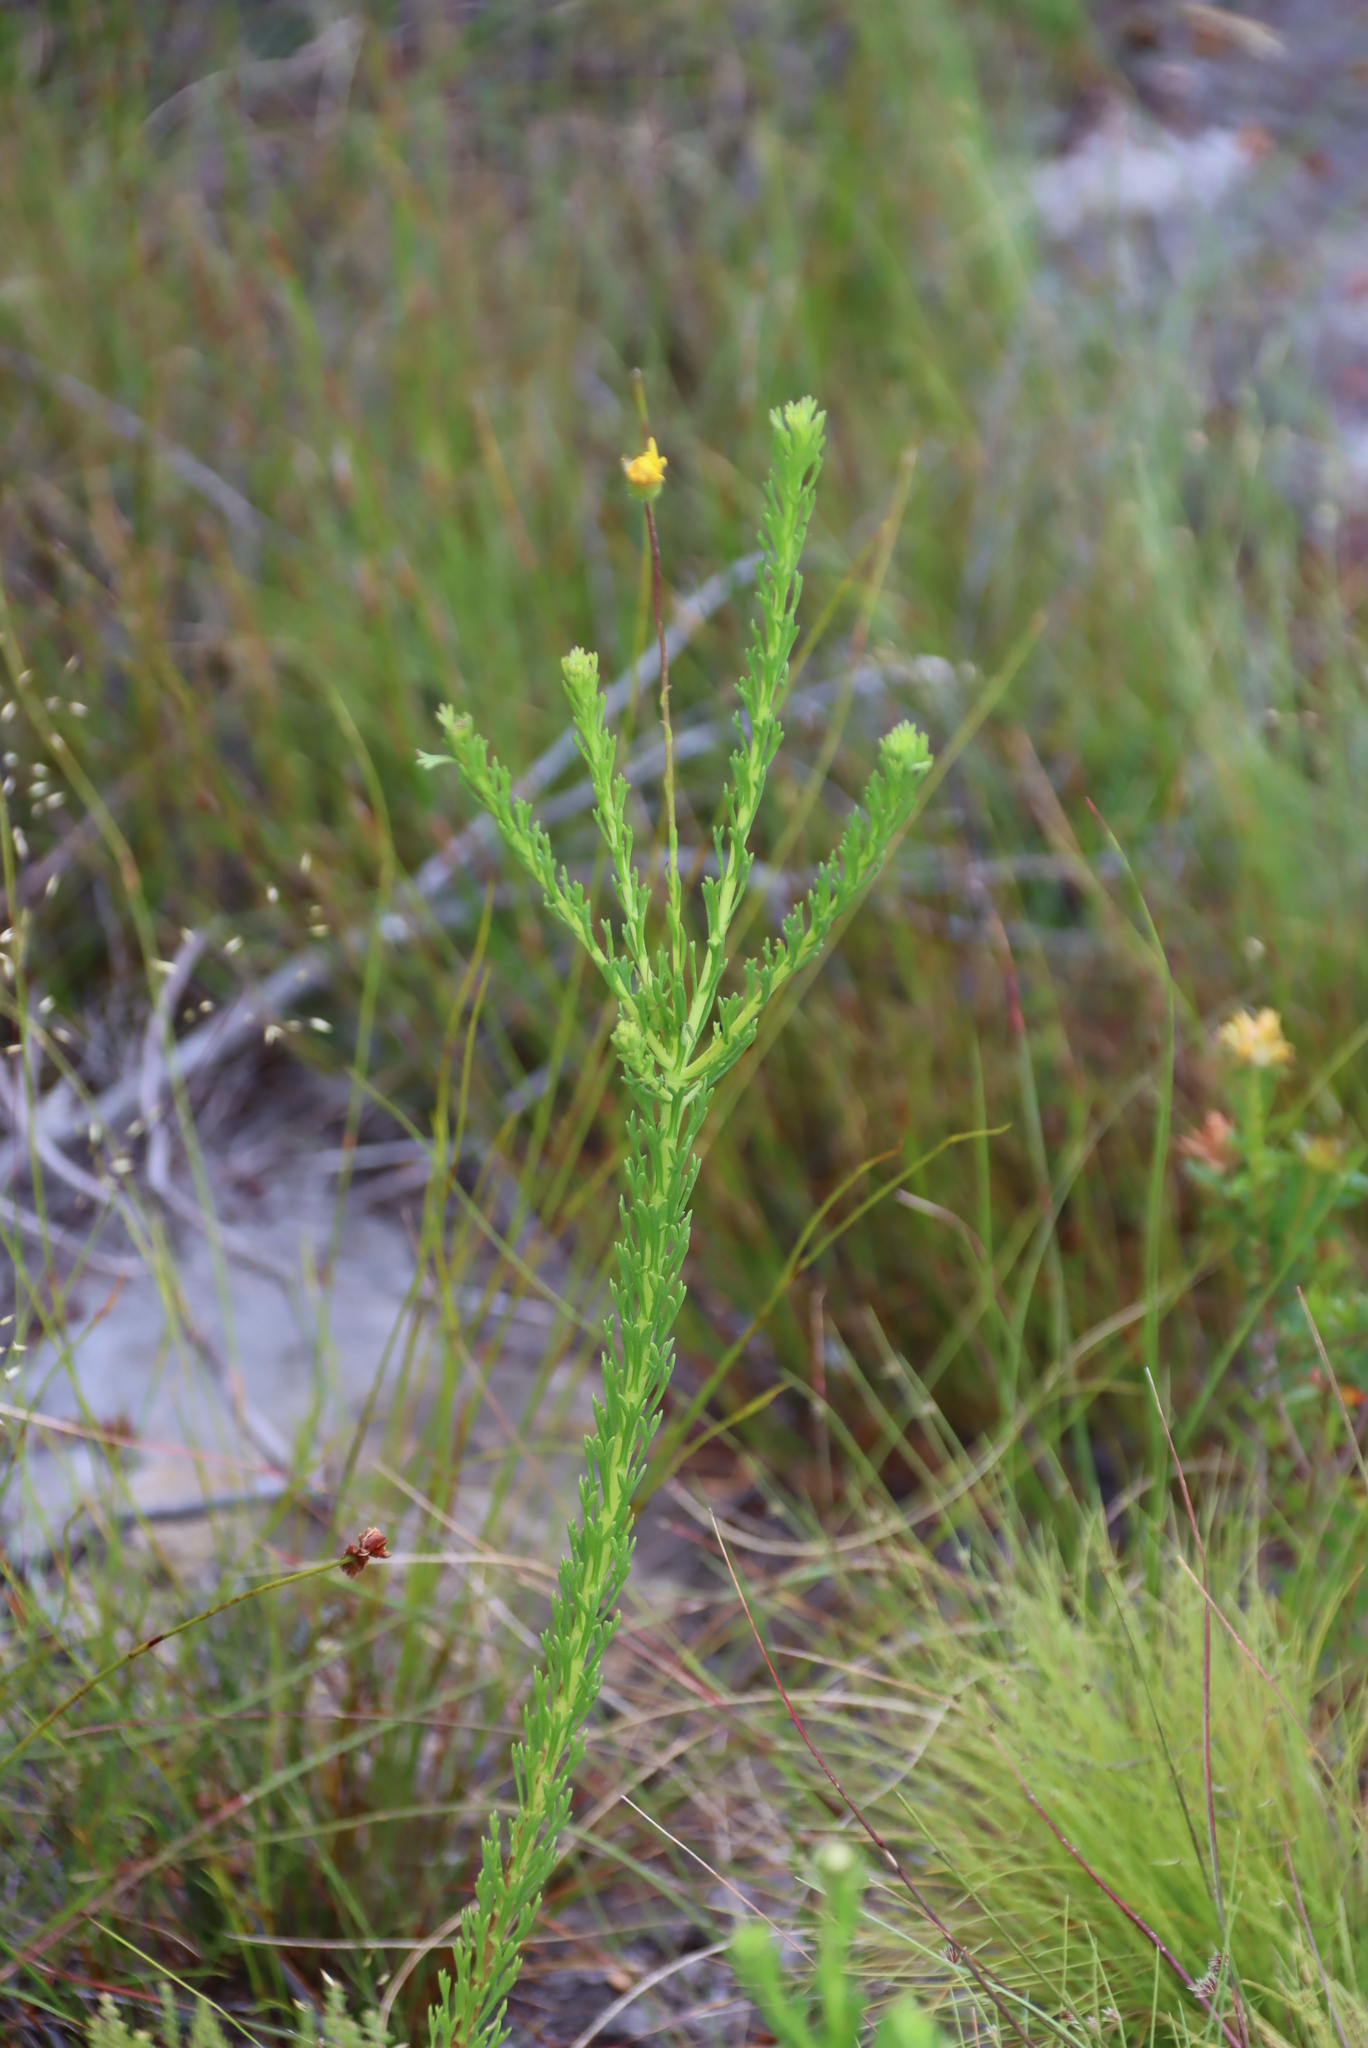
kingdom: Plantae
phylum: Tracheophyta
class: Magnoliopsida
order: Asterales
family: Asteraceae
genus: Ursinia
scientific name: Ursinia trifida
